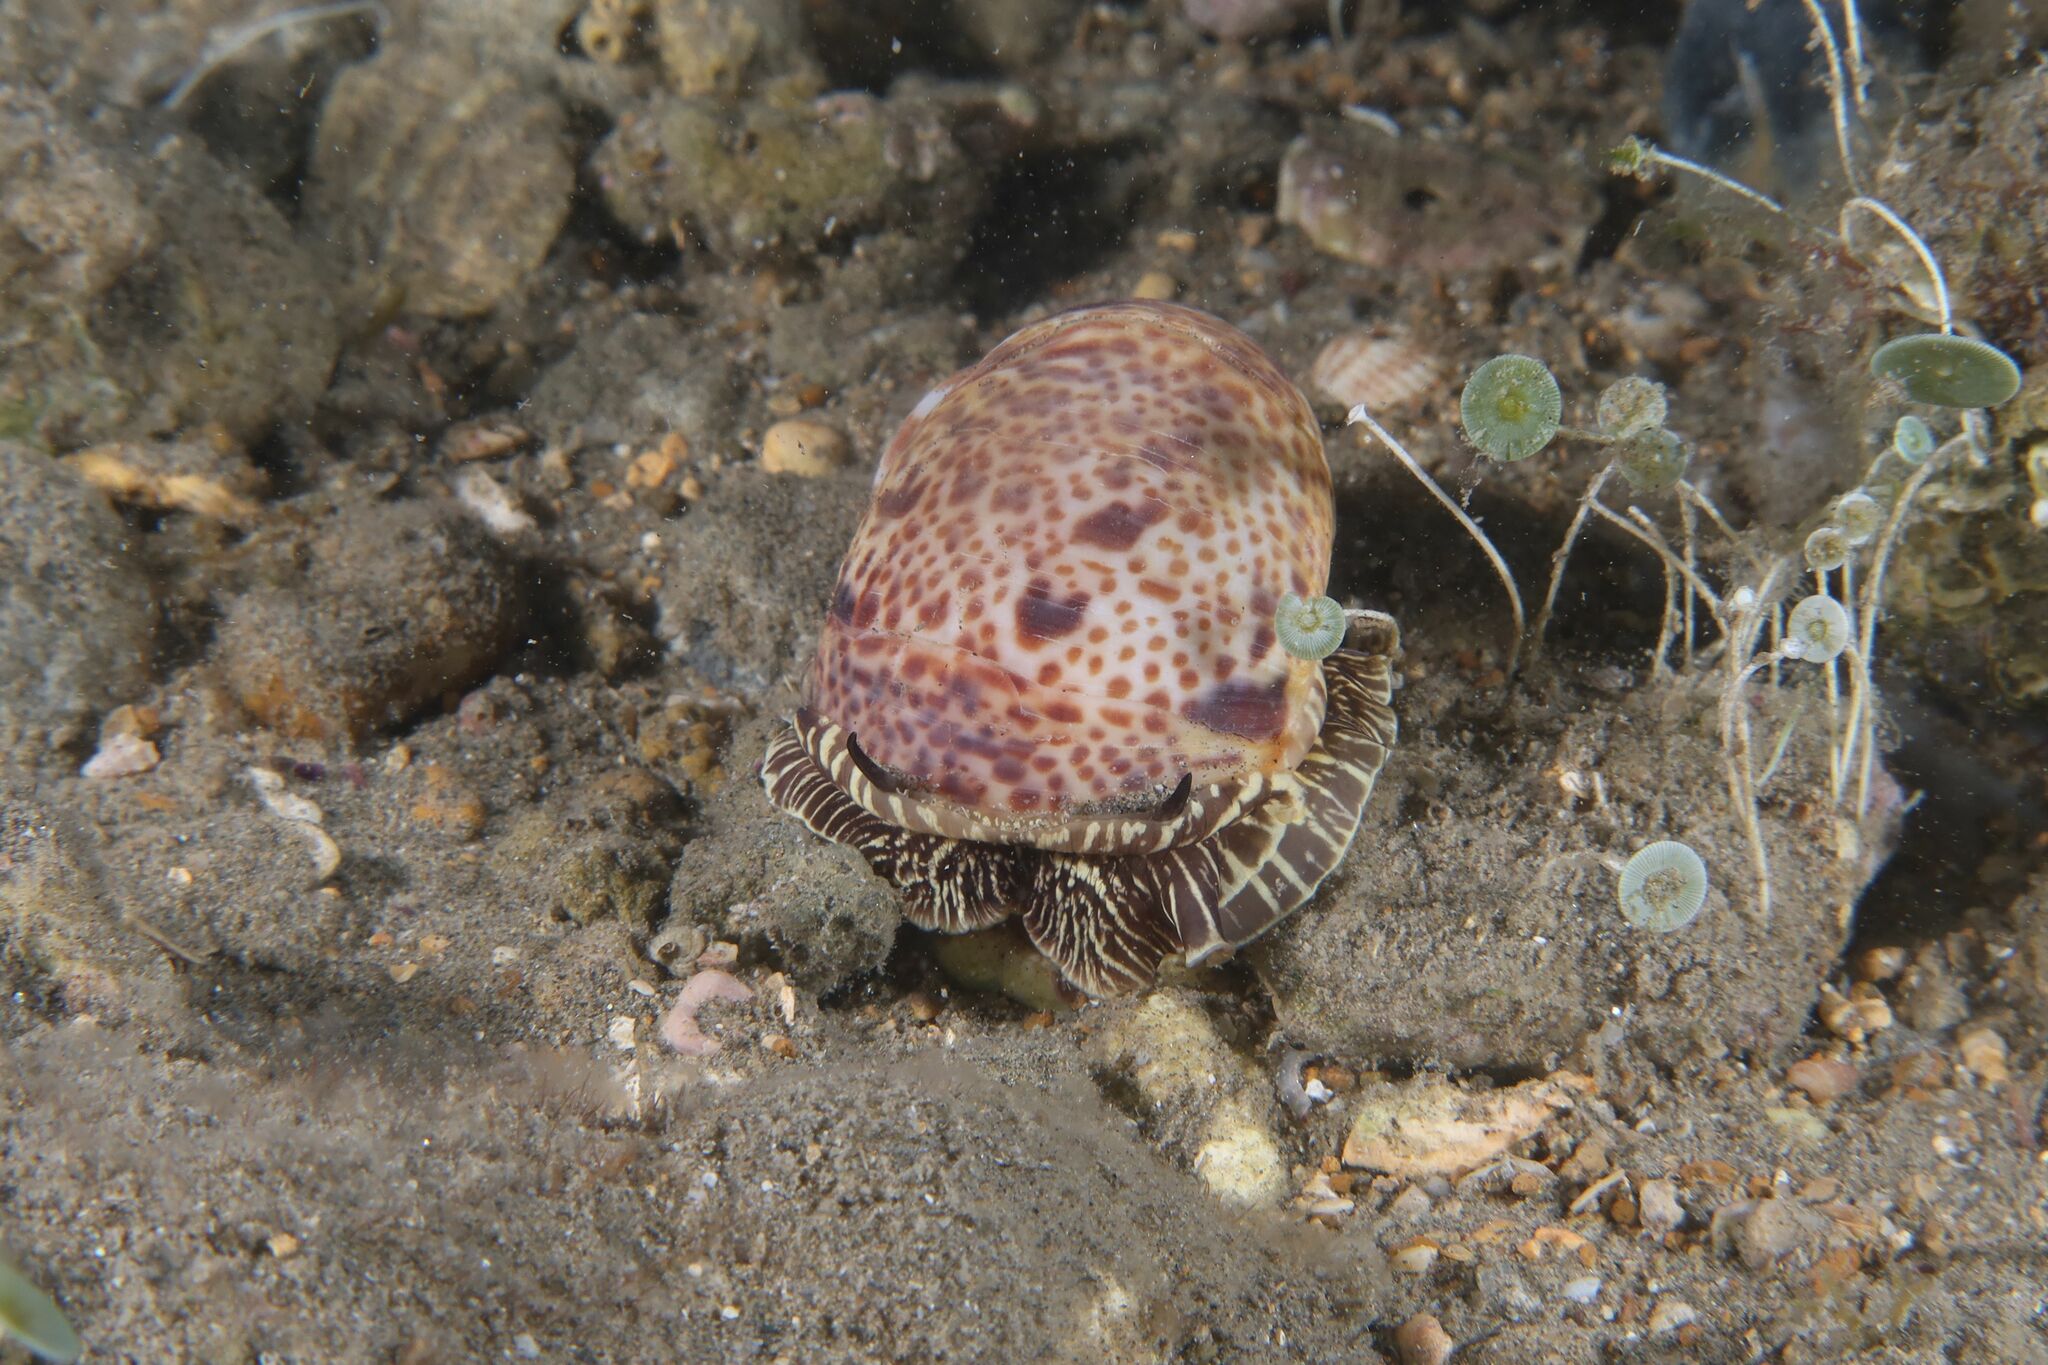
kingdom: Animalia
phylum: Mollusca
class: Gastropoda
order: Littorinimorpha
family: Naticidae
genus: Naticarius
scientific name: Naticarius hebraeus
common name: Hebrew moon shell
